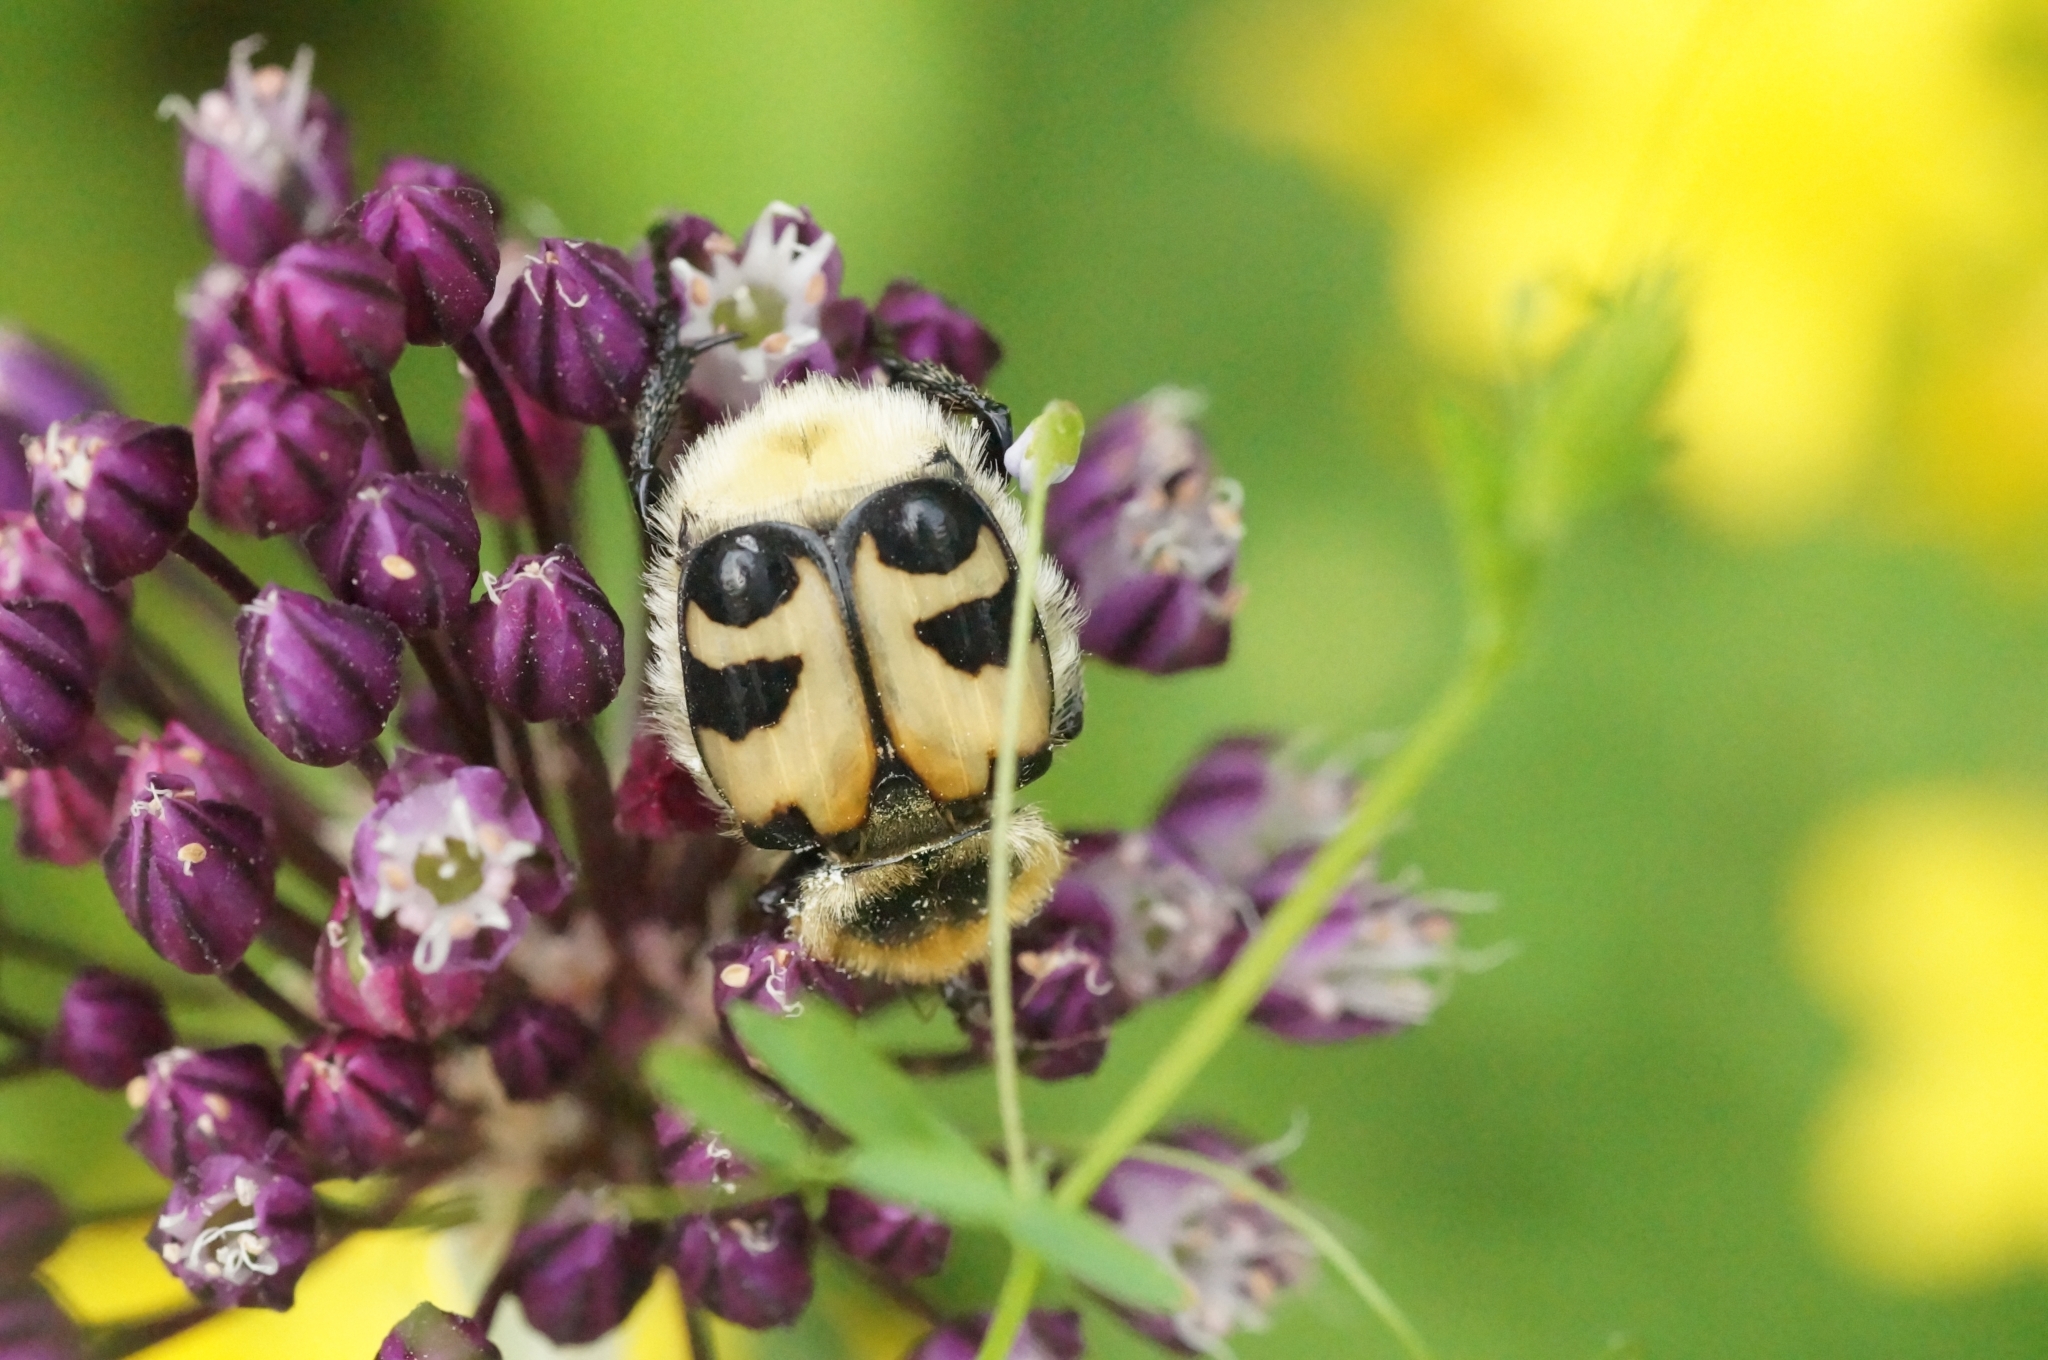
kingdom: Animalia
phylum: Arthropoda
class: Insecta
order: Coleoptera
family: Scarabaeidae
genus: Trichius
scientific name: Trichius fasciatus
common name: Bee beetle
